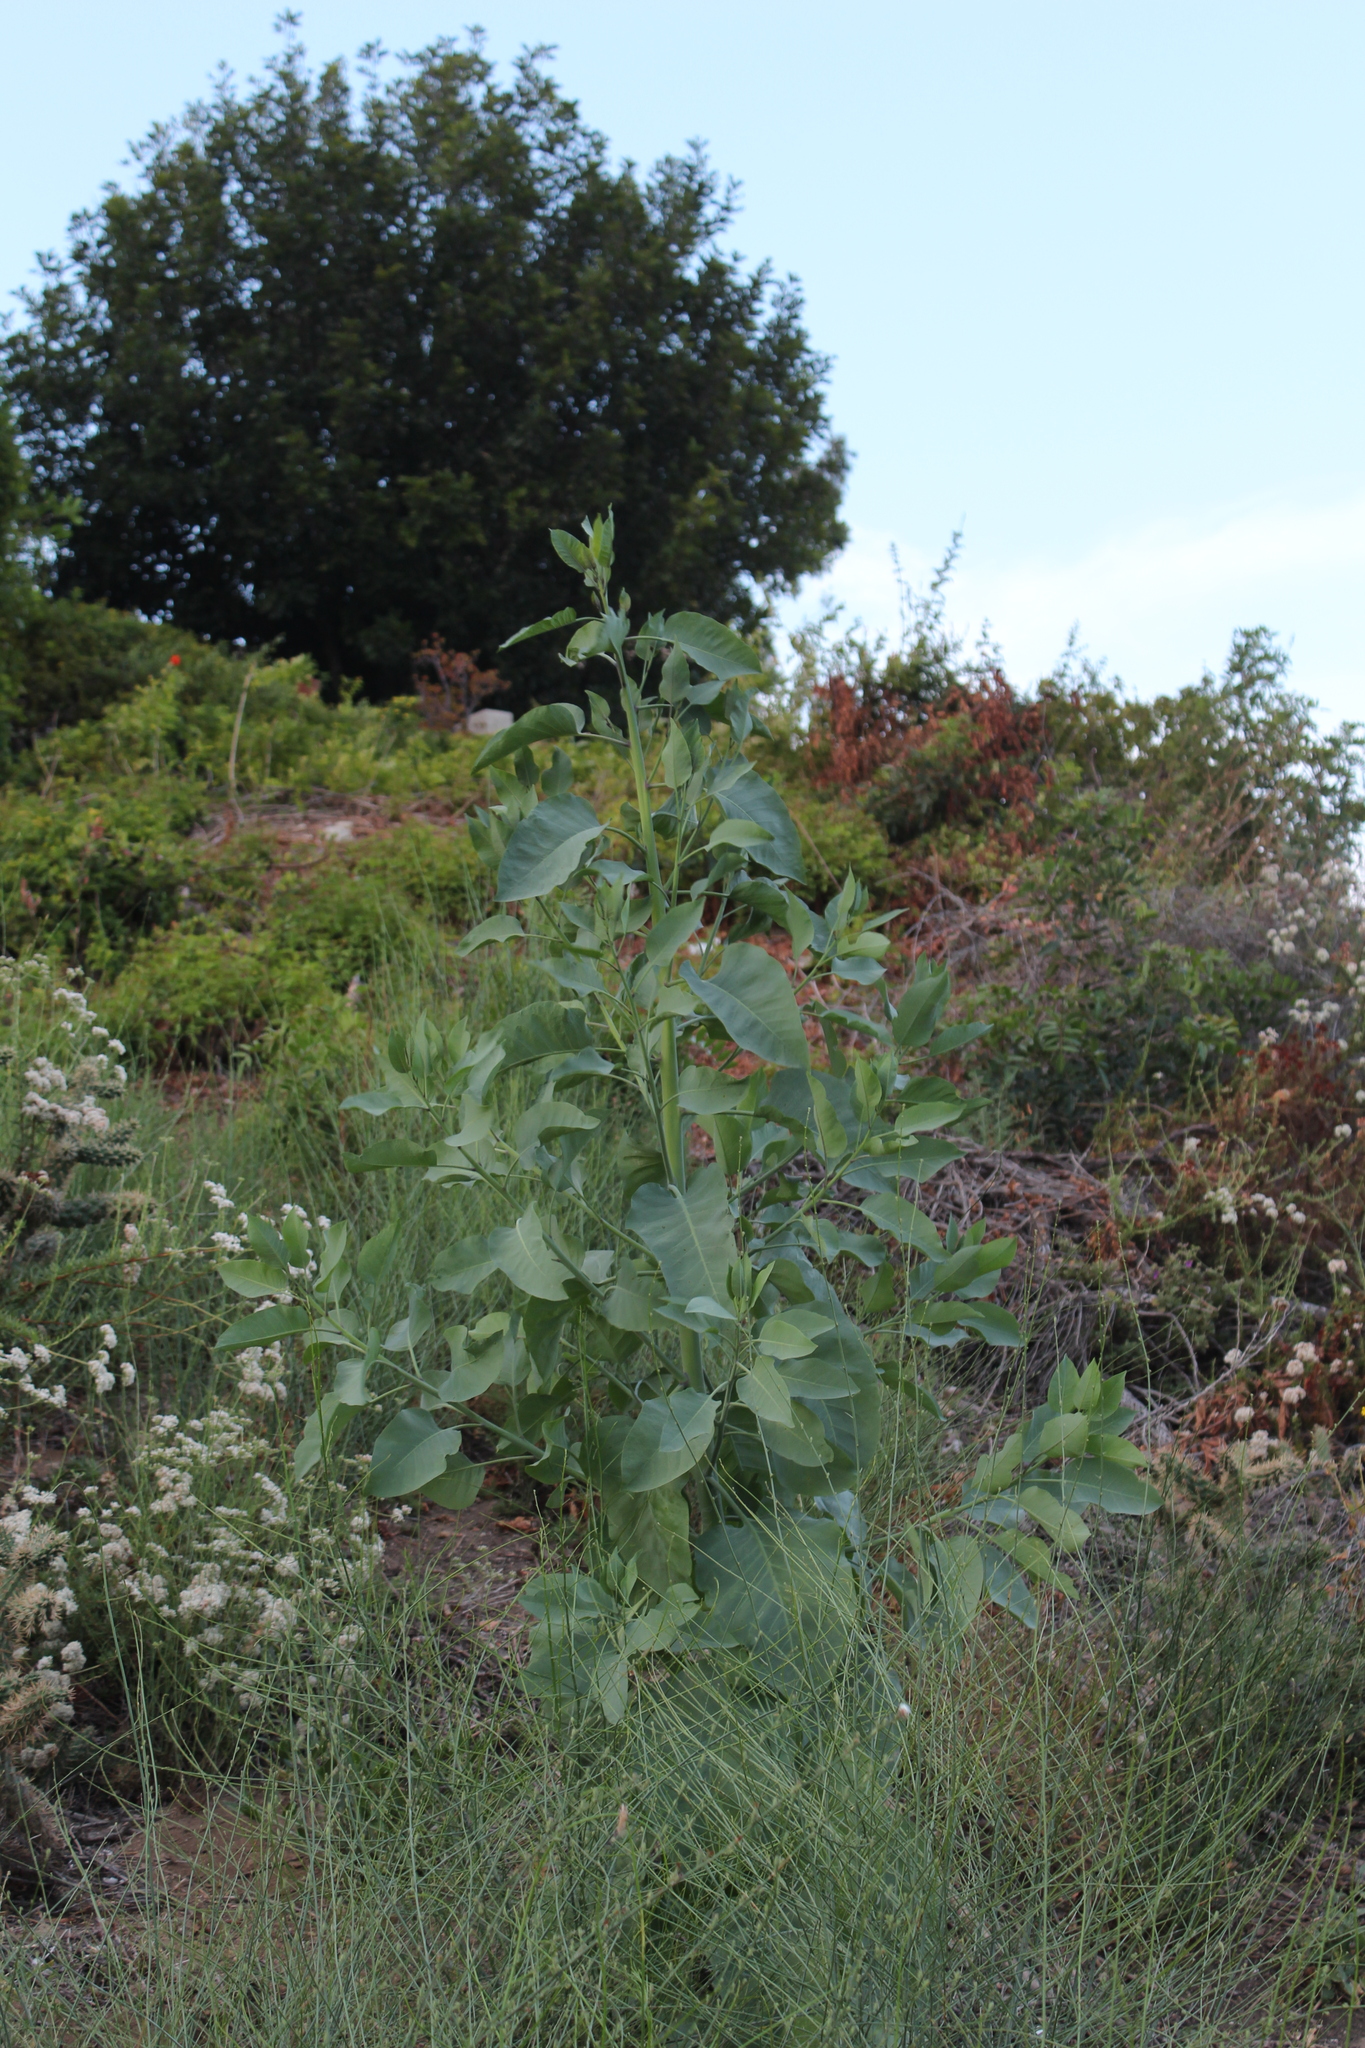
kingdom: Plantae
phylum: Tracheophyta
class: Magnoliopsida
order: Solanales
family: Solanaceae
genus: Nicotiana
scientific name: Nicotiana glauca
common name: Tree tobacco
